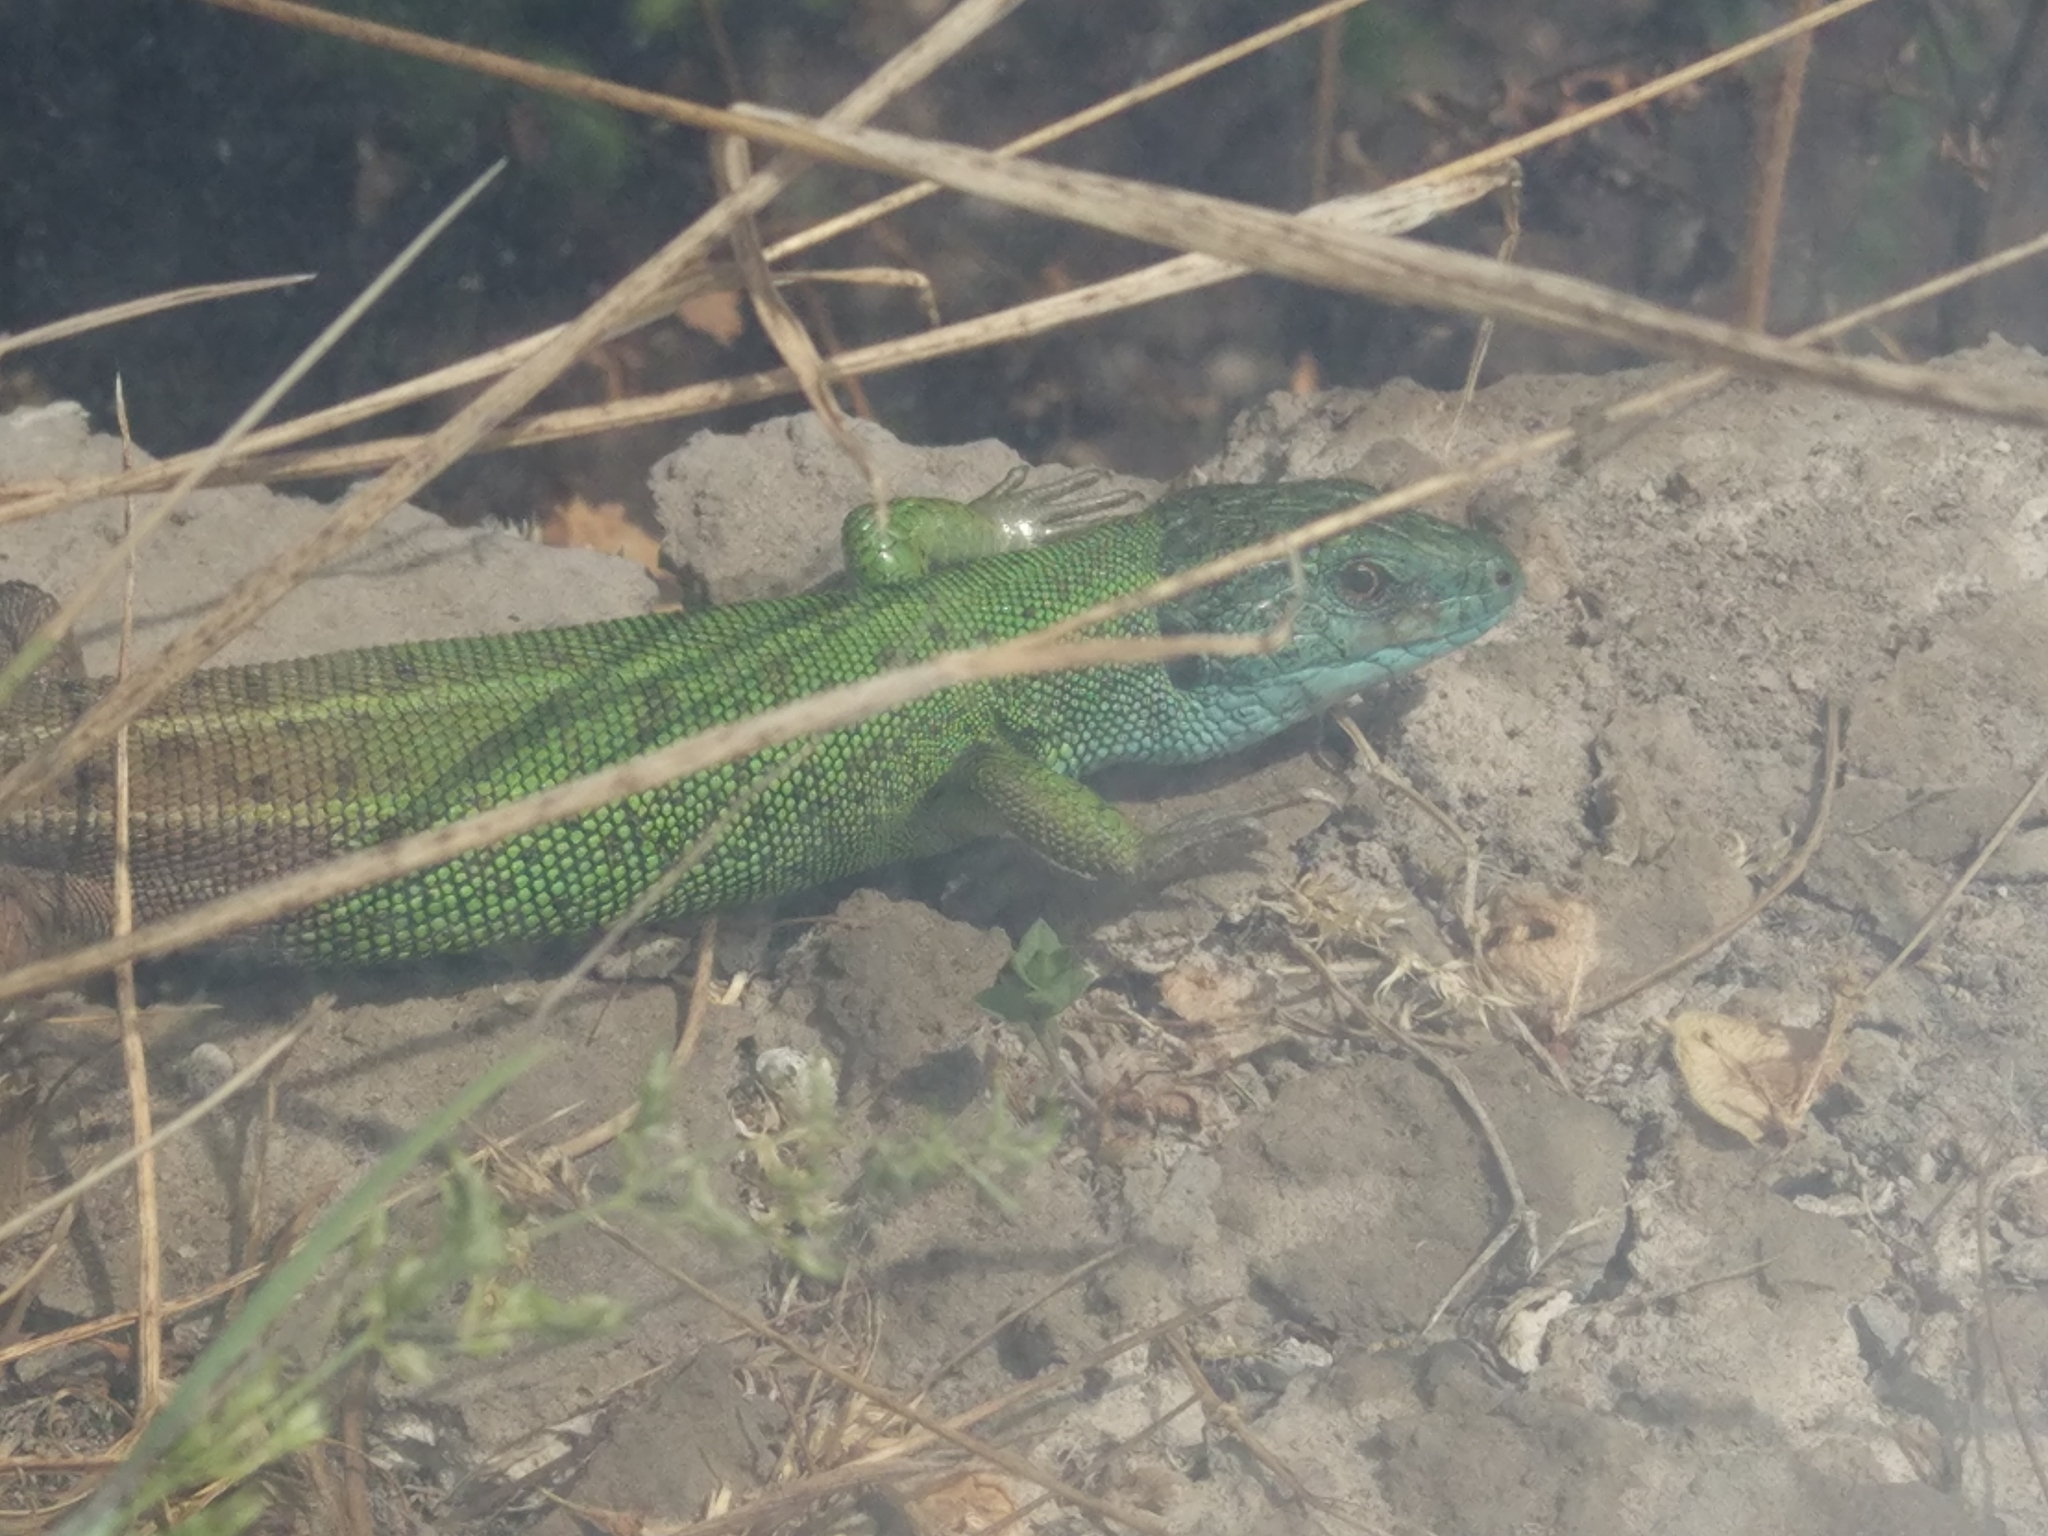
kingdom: Animalia
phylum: Chordata
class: Squamata
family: Lacertidae
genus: Lacerta
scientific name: Lacerta strigata
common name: Caspian green lizard
